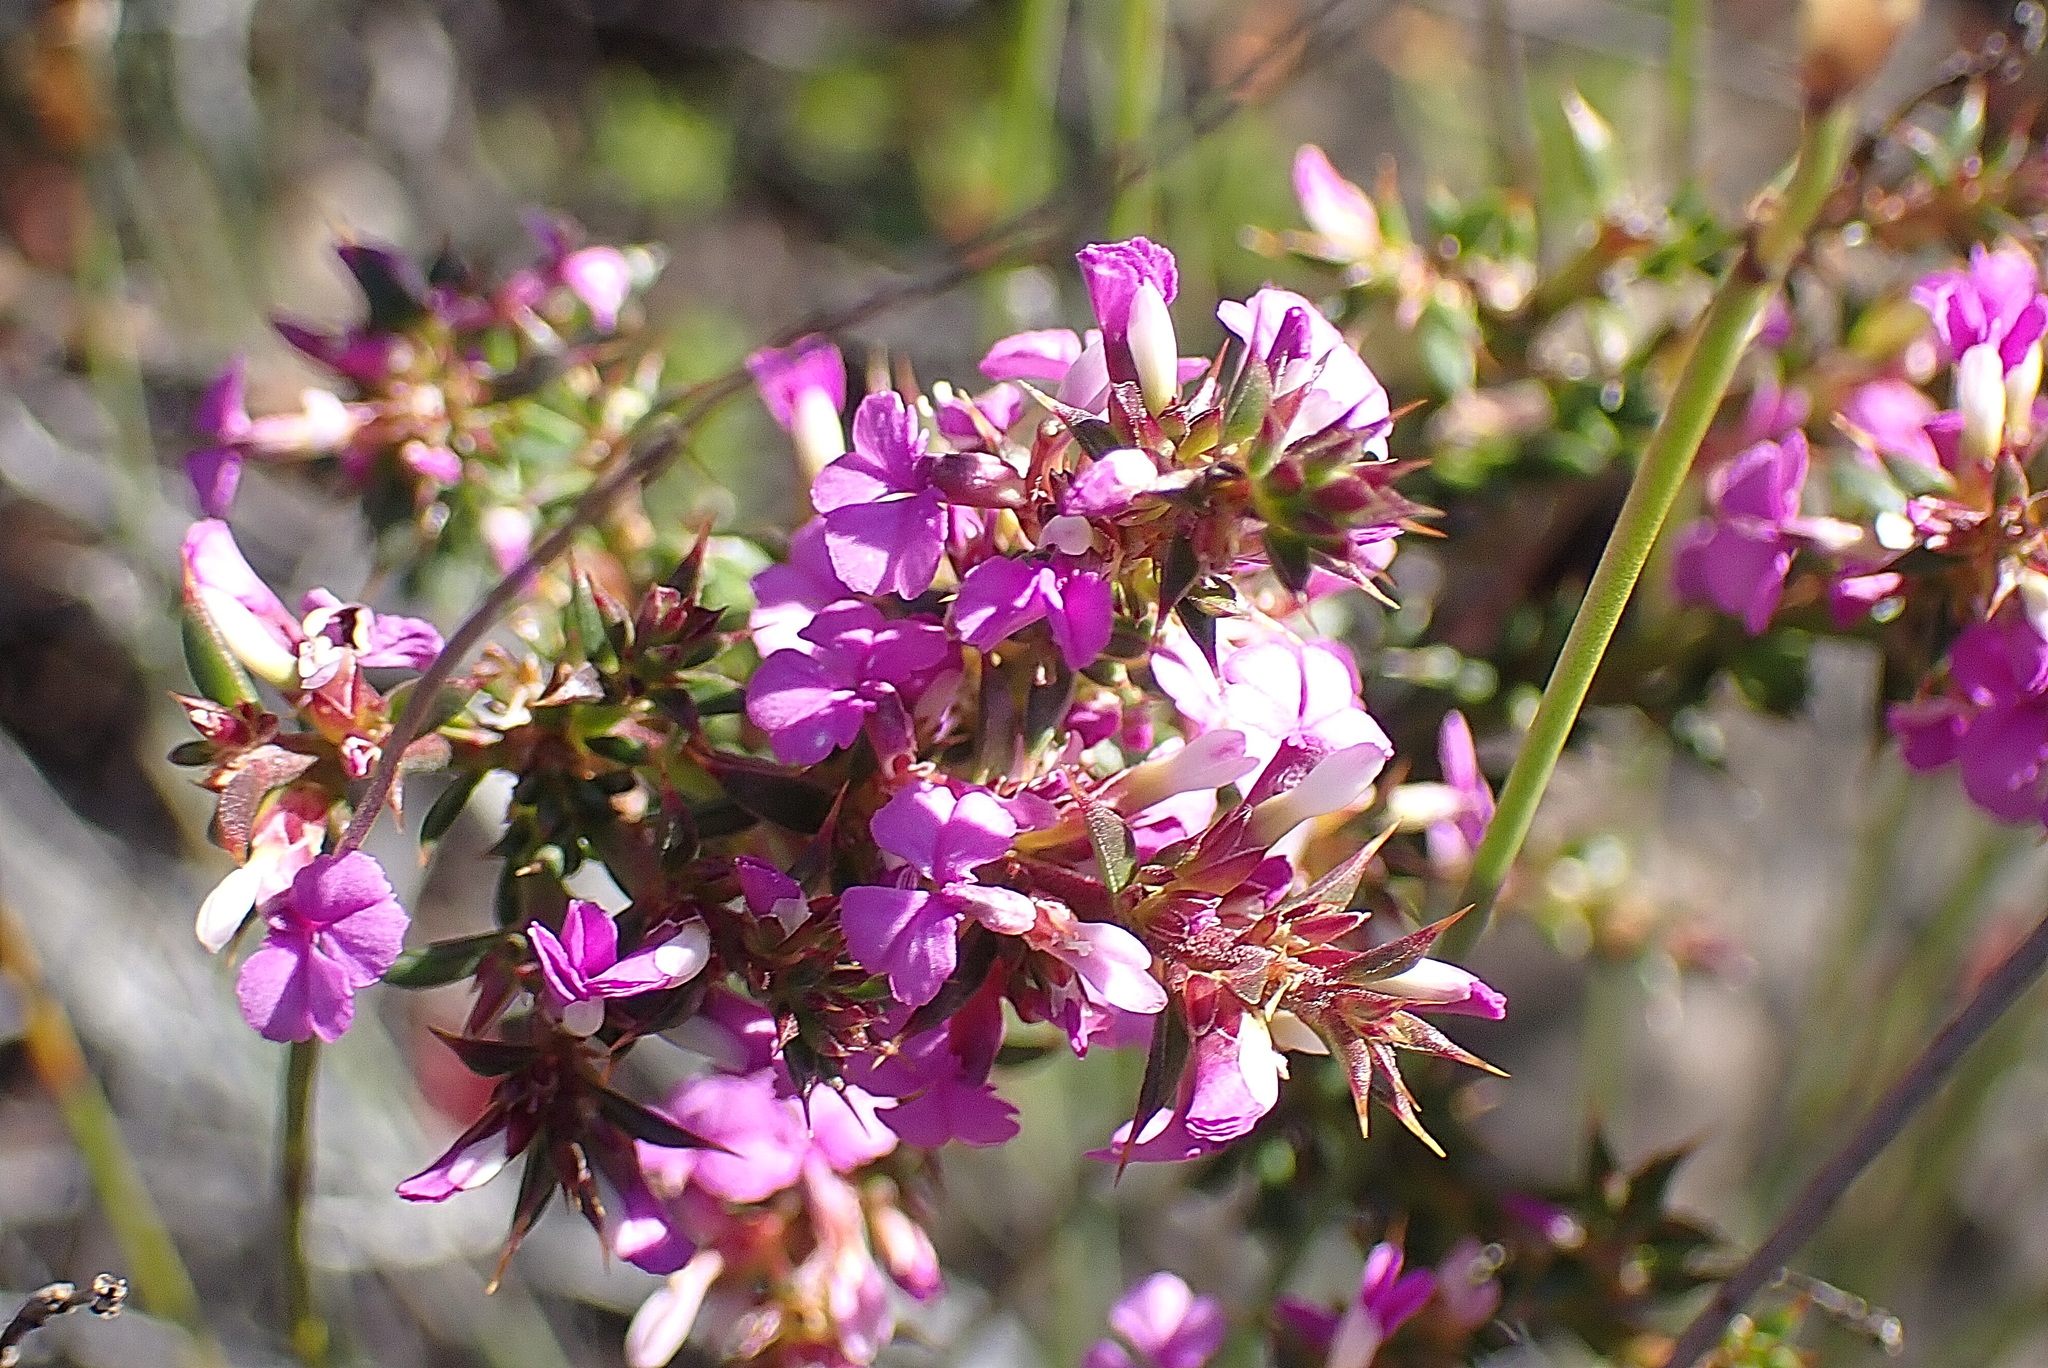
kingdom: Plantae
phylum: Tracheophyta
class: Magnoliopsida
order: Fabales
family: Polygalaceae
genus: Muraltia
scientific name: Muraltia heisteria
